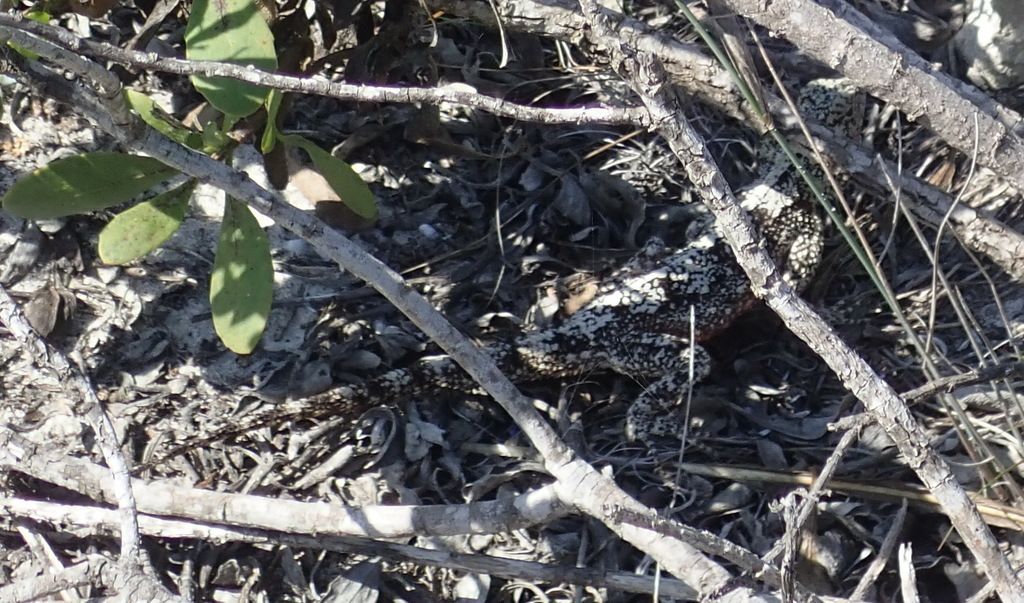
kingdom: Animalia
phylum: Chordata
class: Squamata
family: Agamidae
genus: Agama
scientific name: Agama atra
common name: Southern african rock agama
